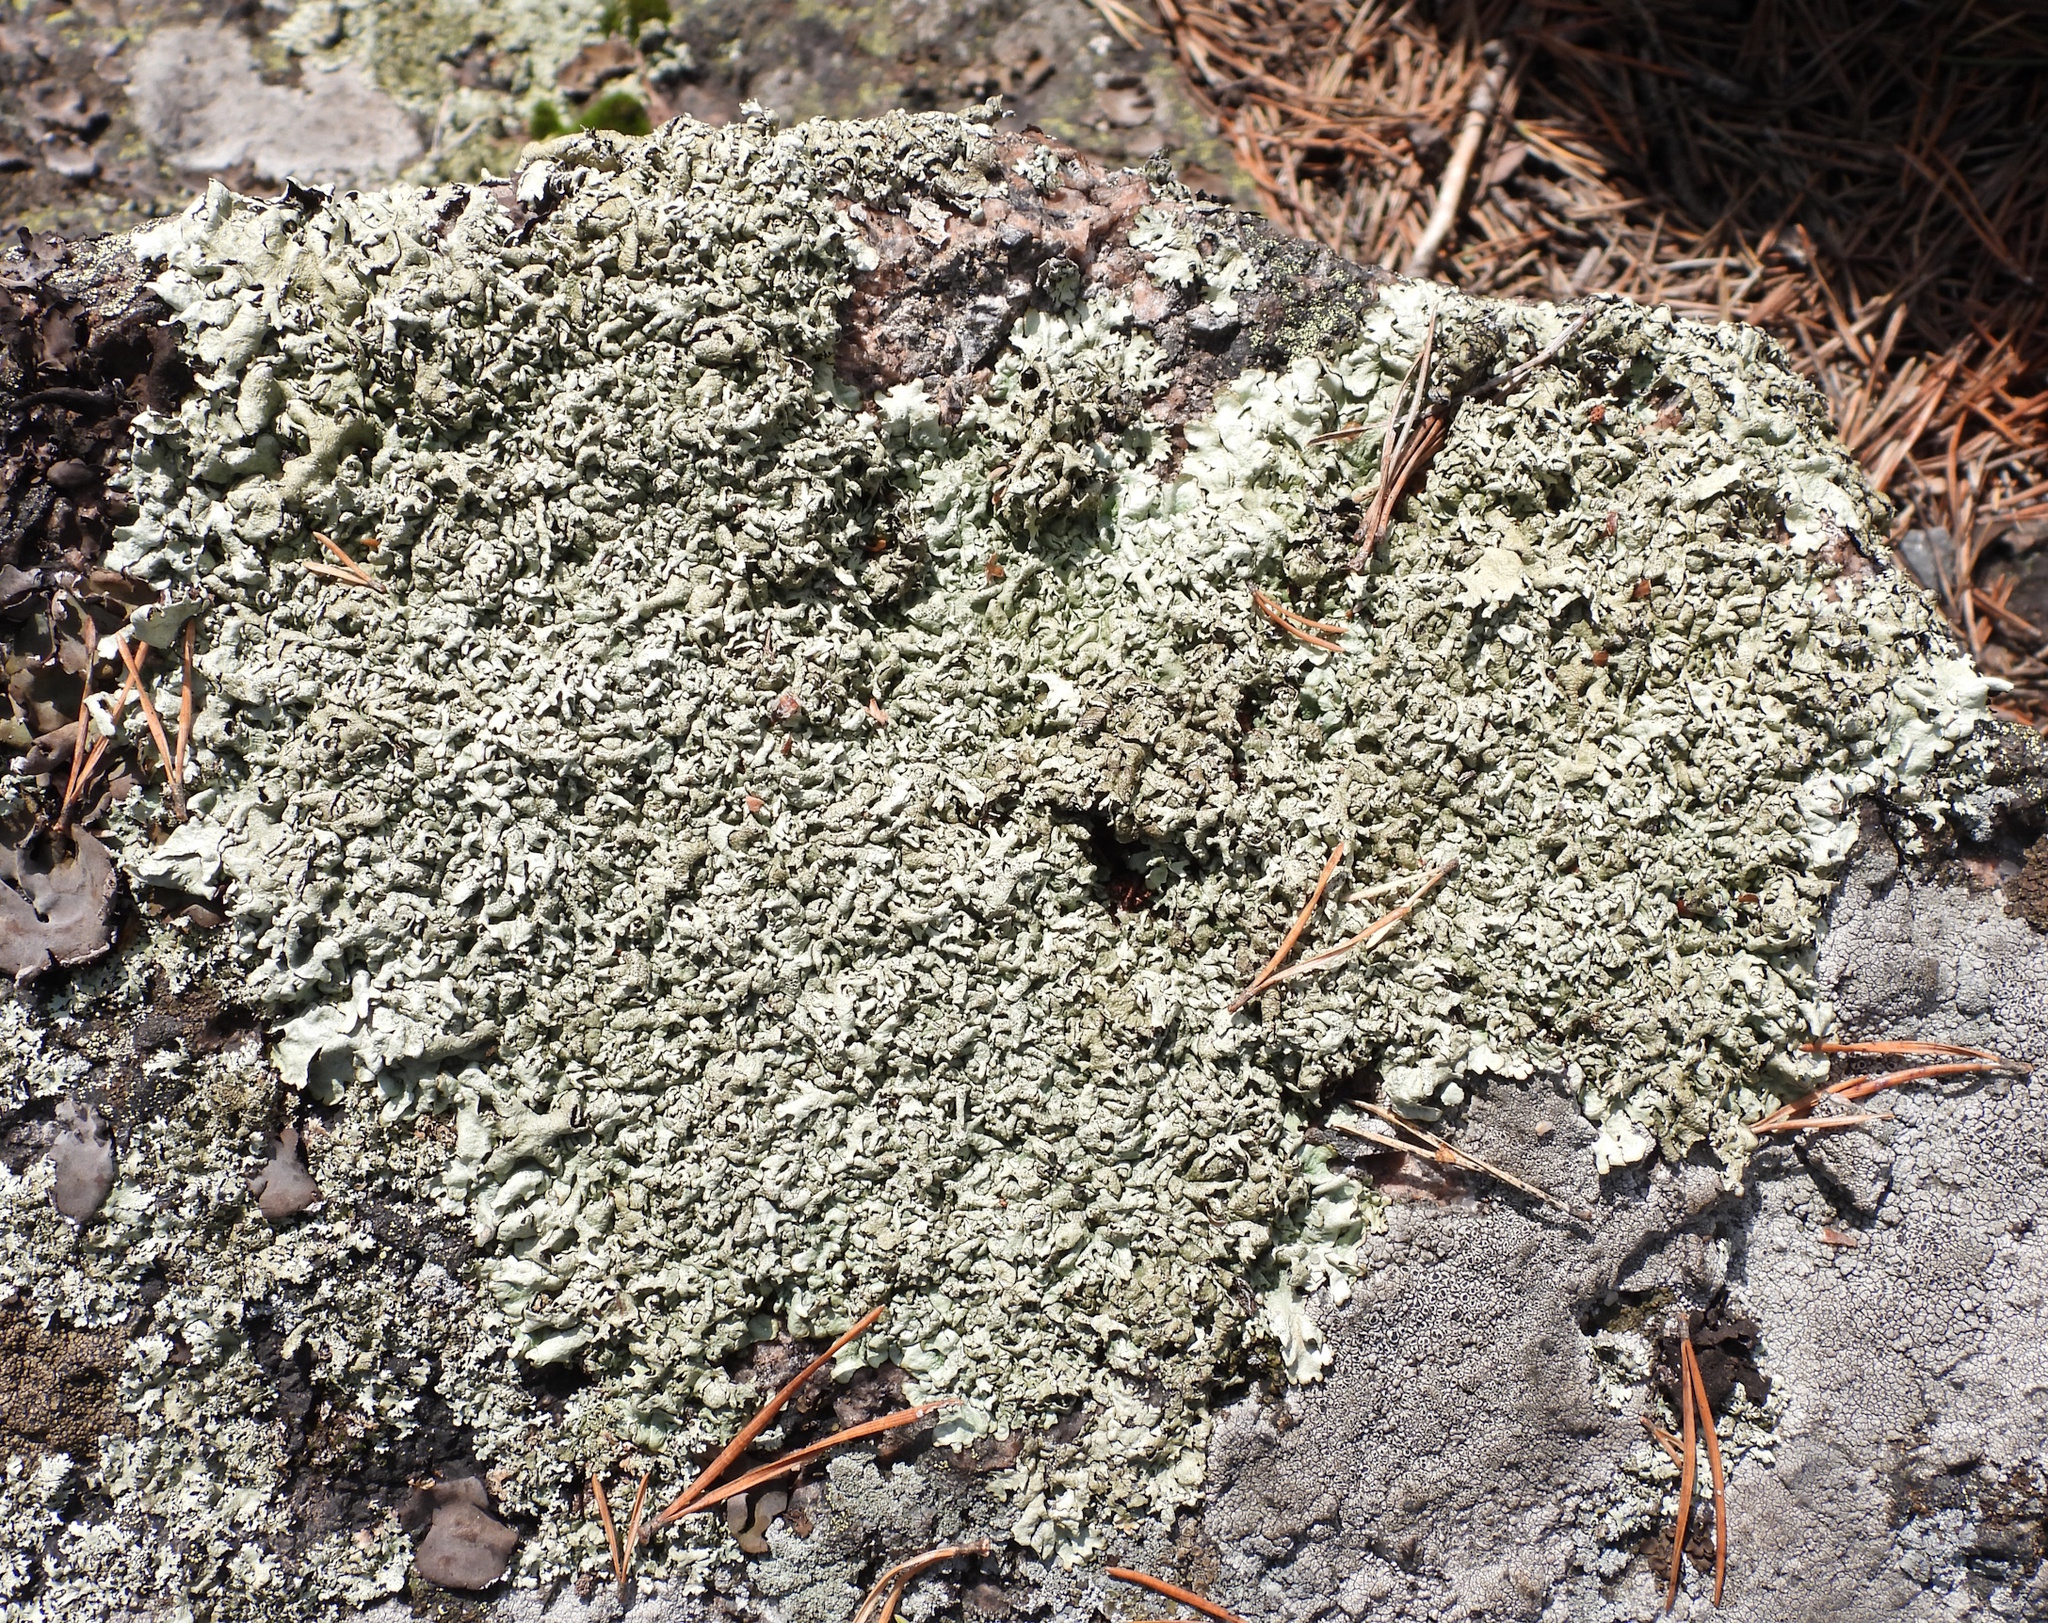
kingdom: Fungi
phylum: Ascomycota
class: Lecanoromycetes
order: Lecanorales
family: Parmeliaceae
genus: Xanthoparmelia
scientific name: Xanthoparmelia stenophylla
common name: Shingled rock shield
